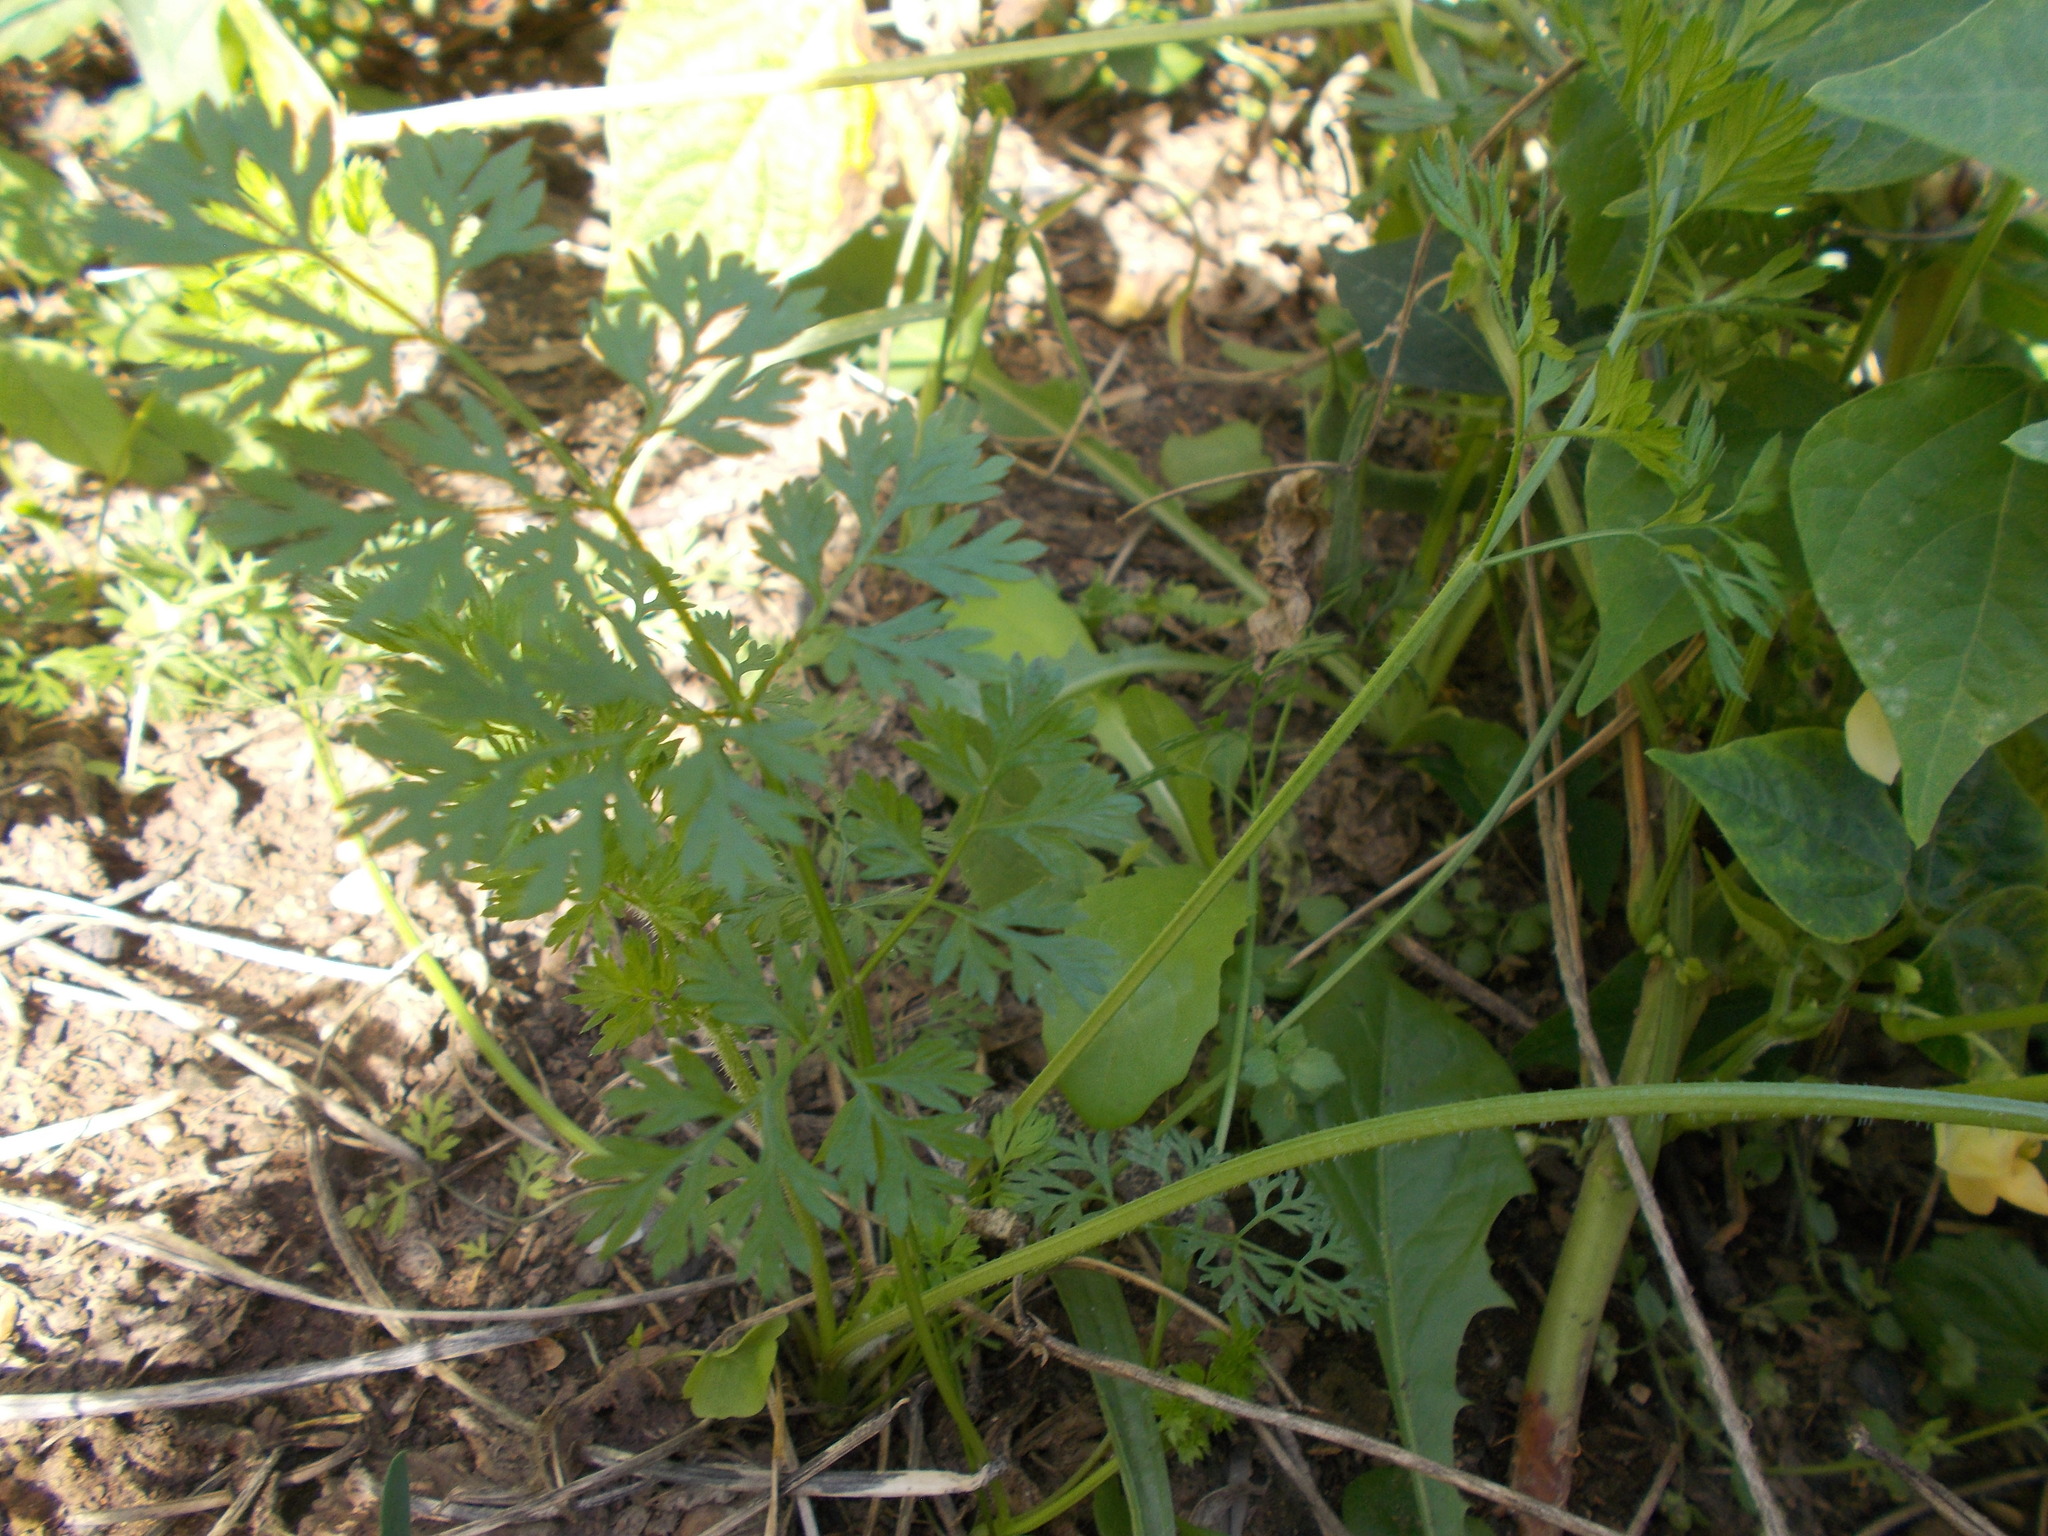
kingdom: Plantae
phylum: Tracheophyta
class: Magnoliopsida
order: Apiales
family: Apiaceae
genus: Daucus
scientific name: Daucus carota
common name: Wild carrot
